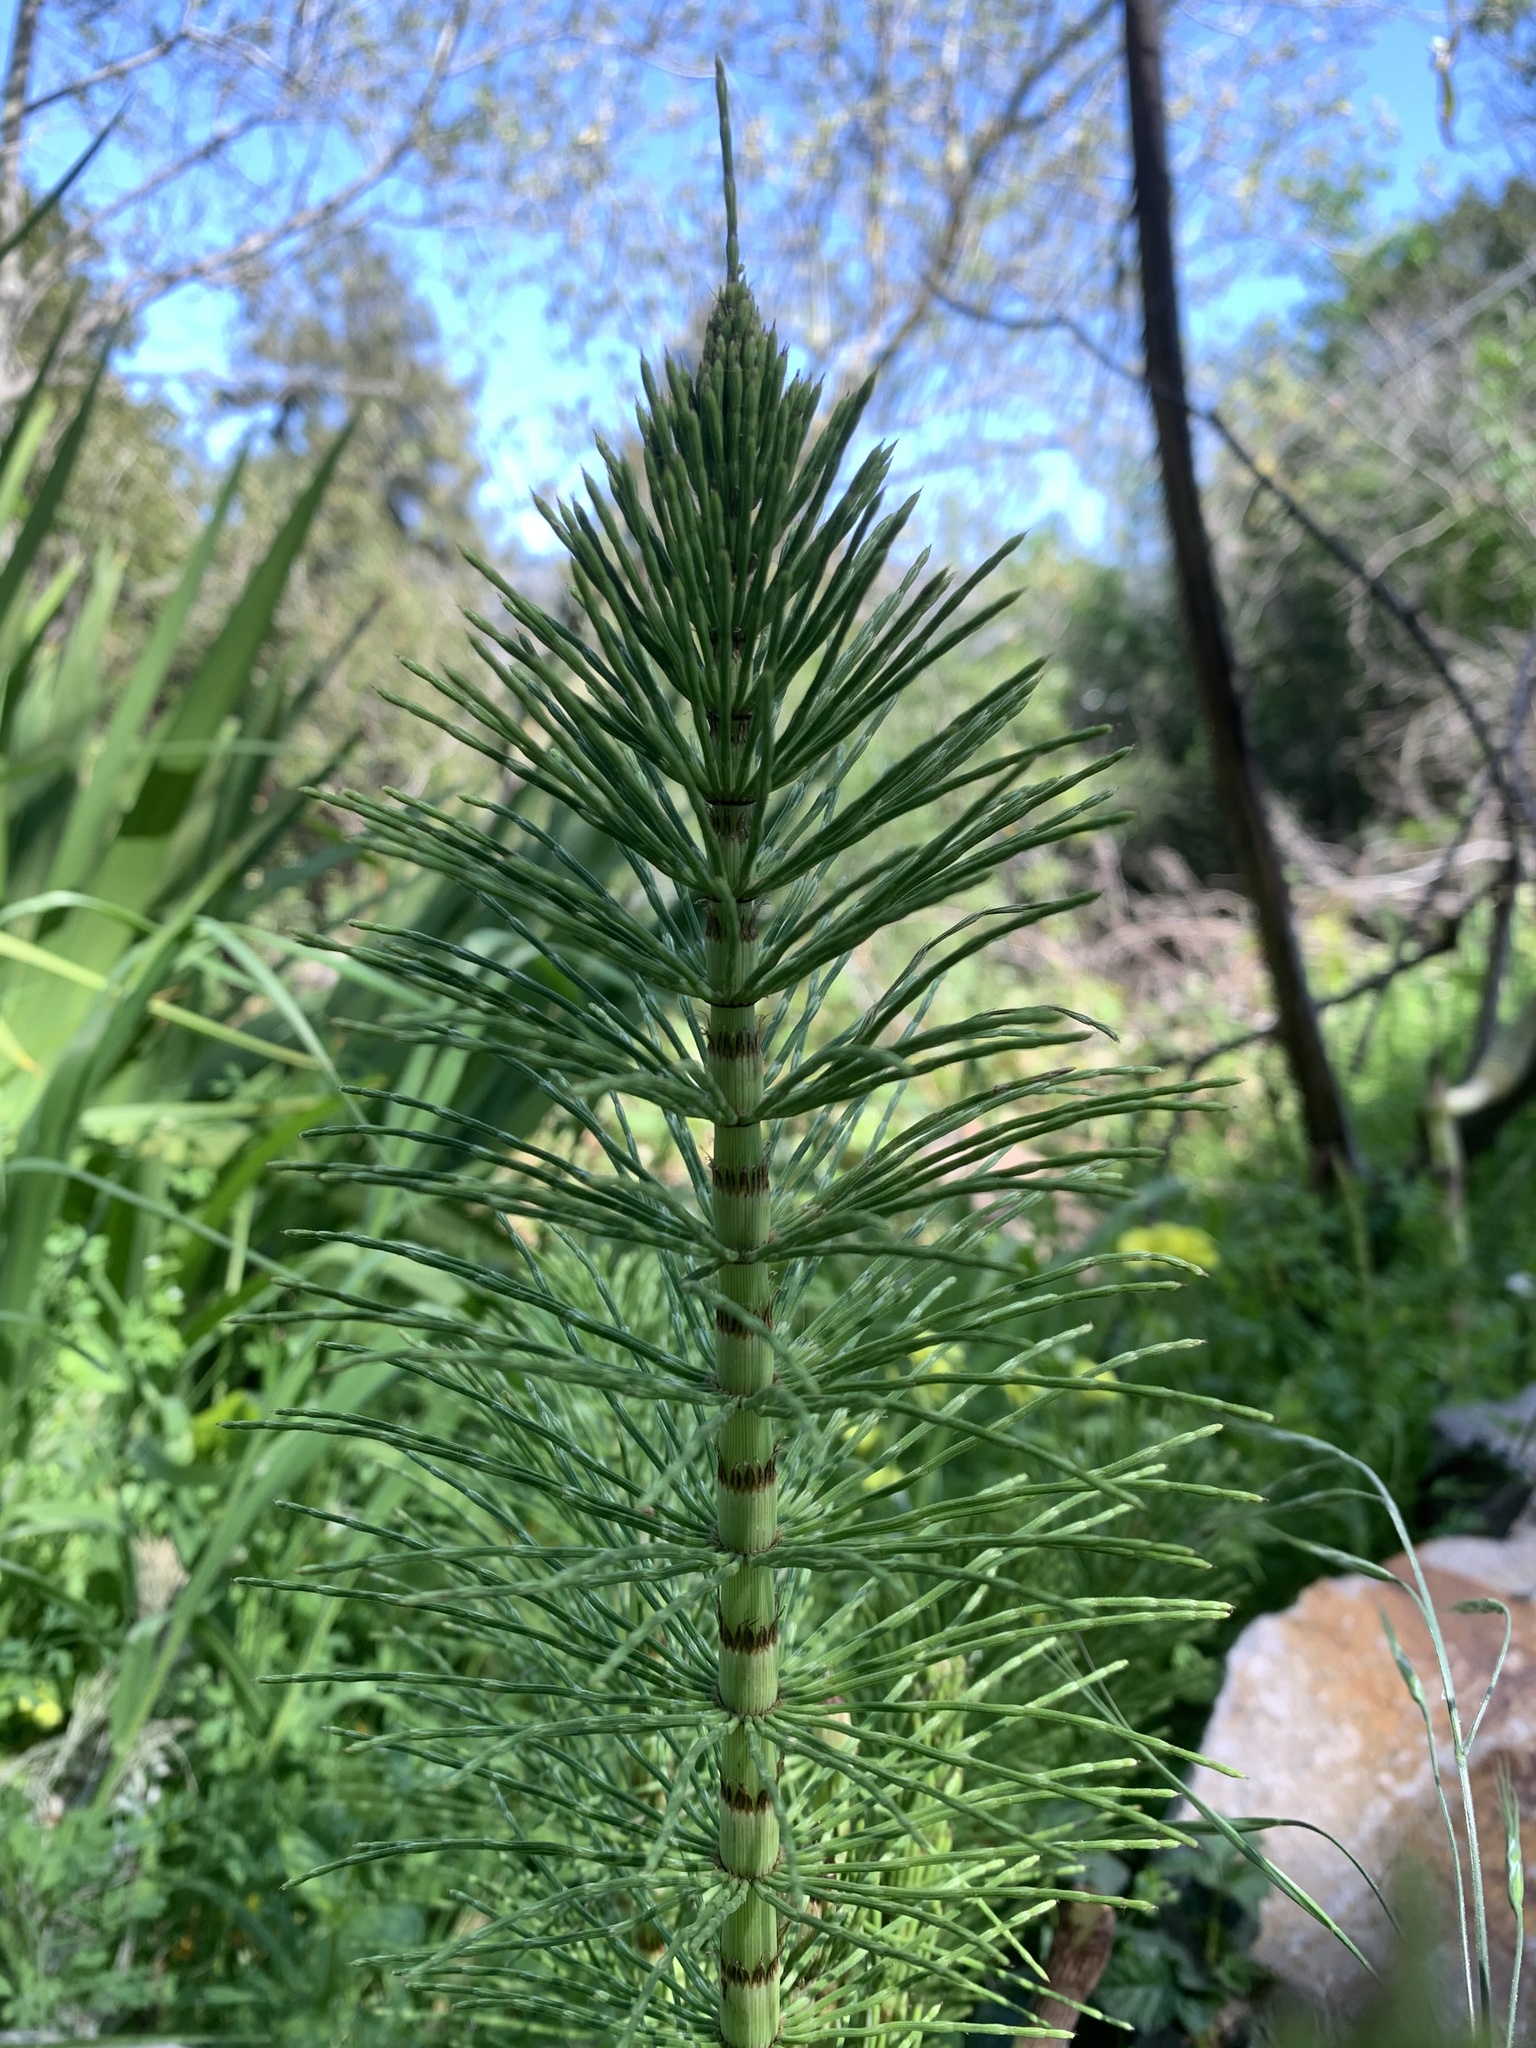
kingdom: Plantae
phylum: Tracheophyta
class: Polypodiopsida
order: Equisetales
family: Equisetaceae
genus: Equisetum
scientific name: Equisetum braunii
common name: Braun's horsetail
